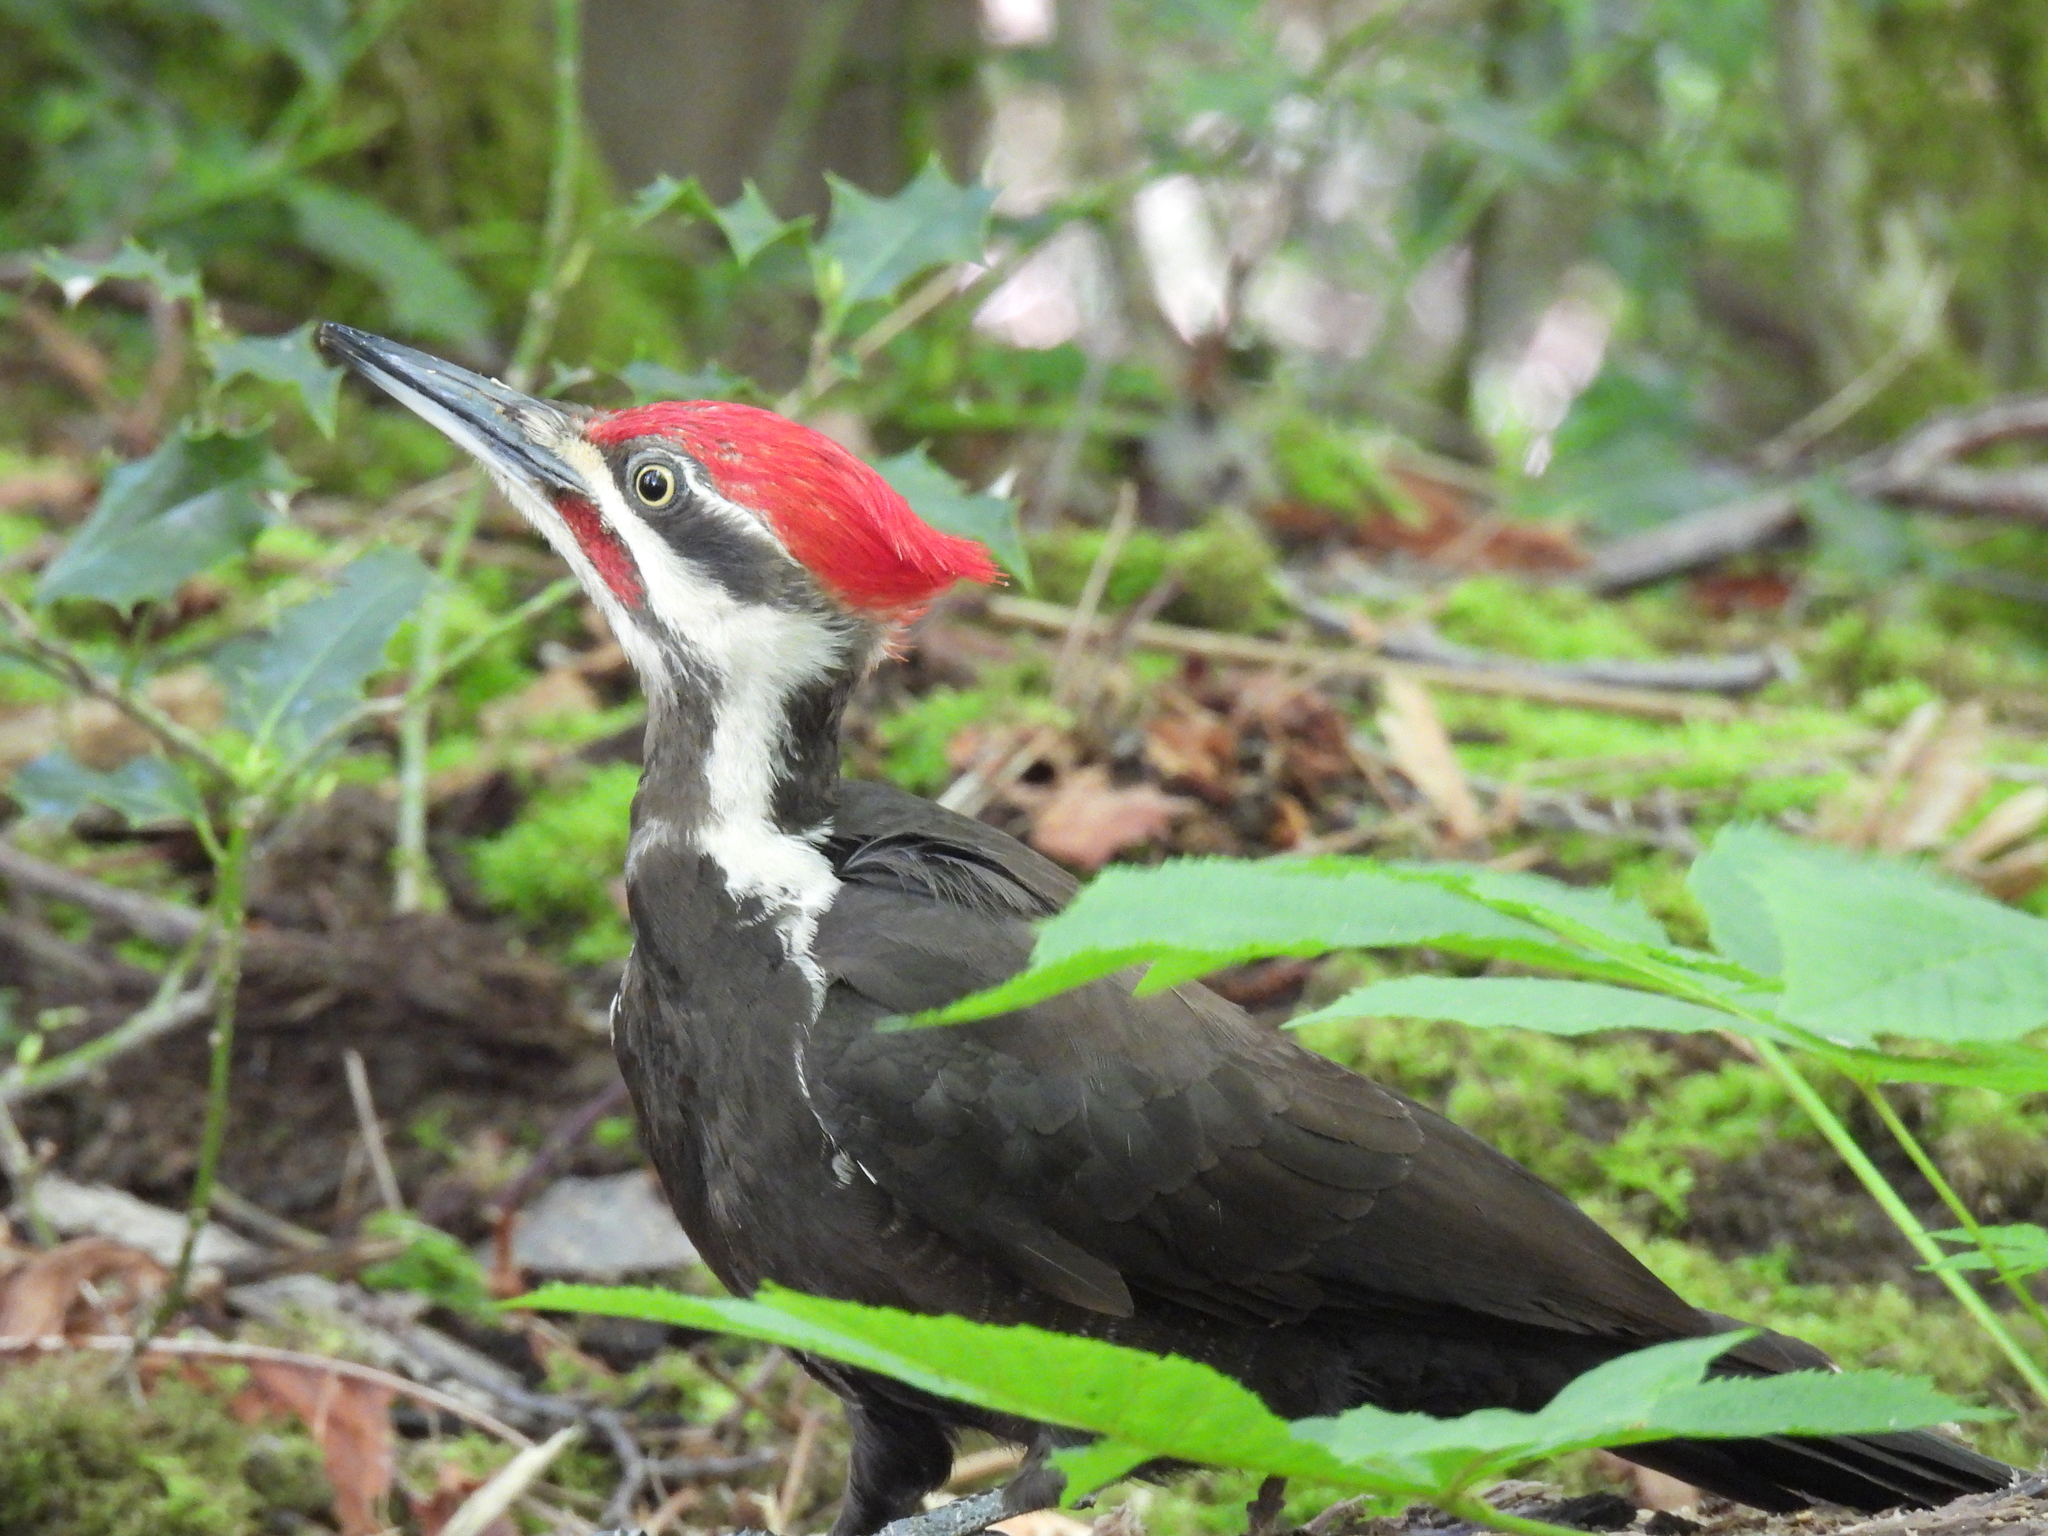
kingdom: Animalia
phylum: Chordata
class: Aves
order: Piciformes
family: Picidae
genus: Dryocopus
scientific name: Dryocopus pileatus
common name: Pileated woodpecker
